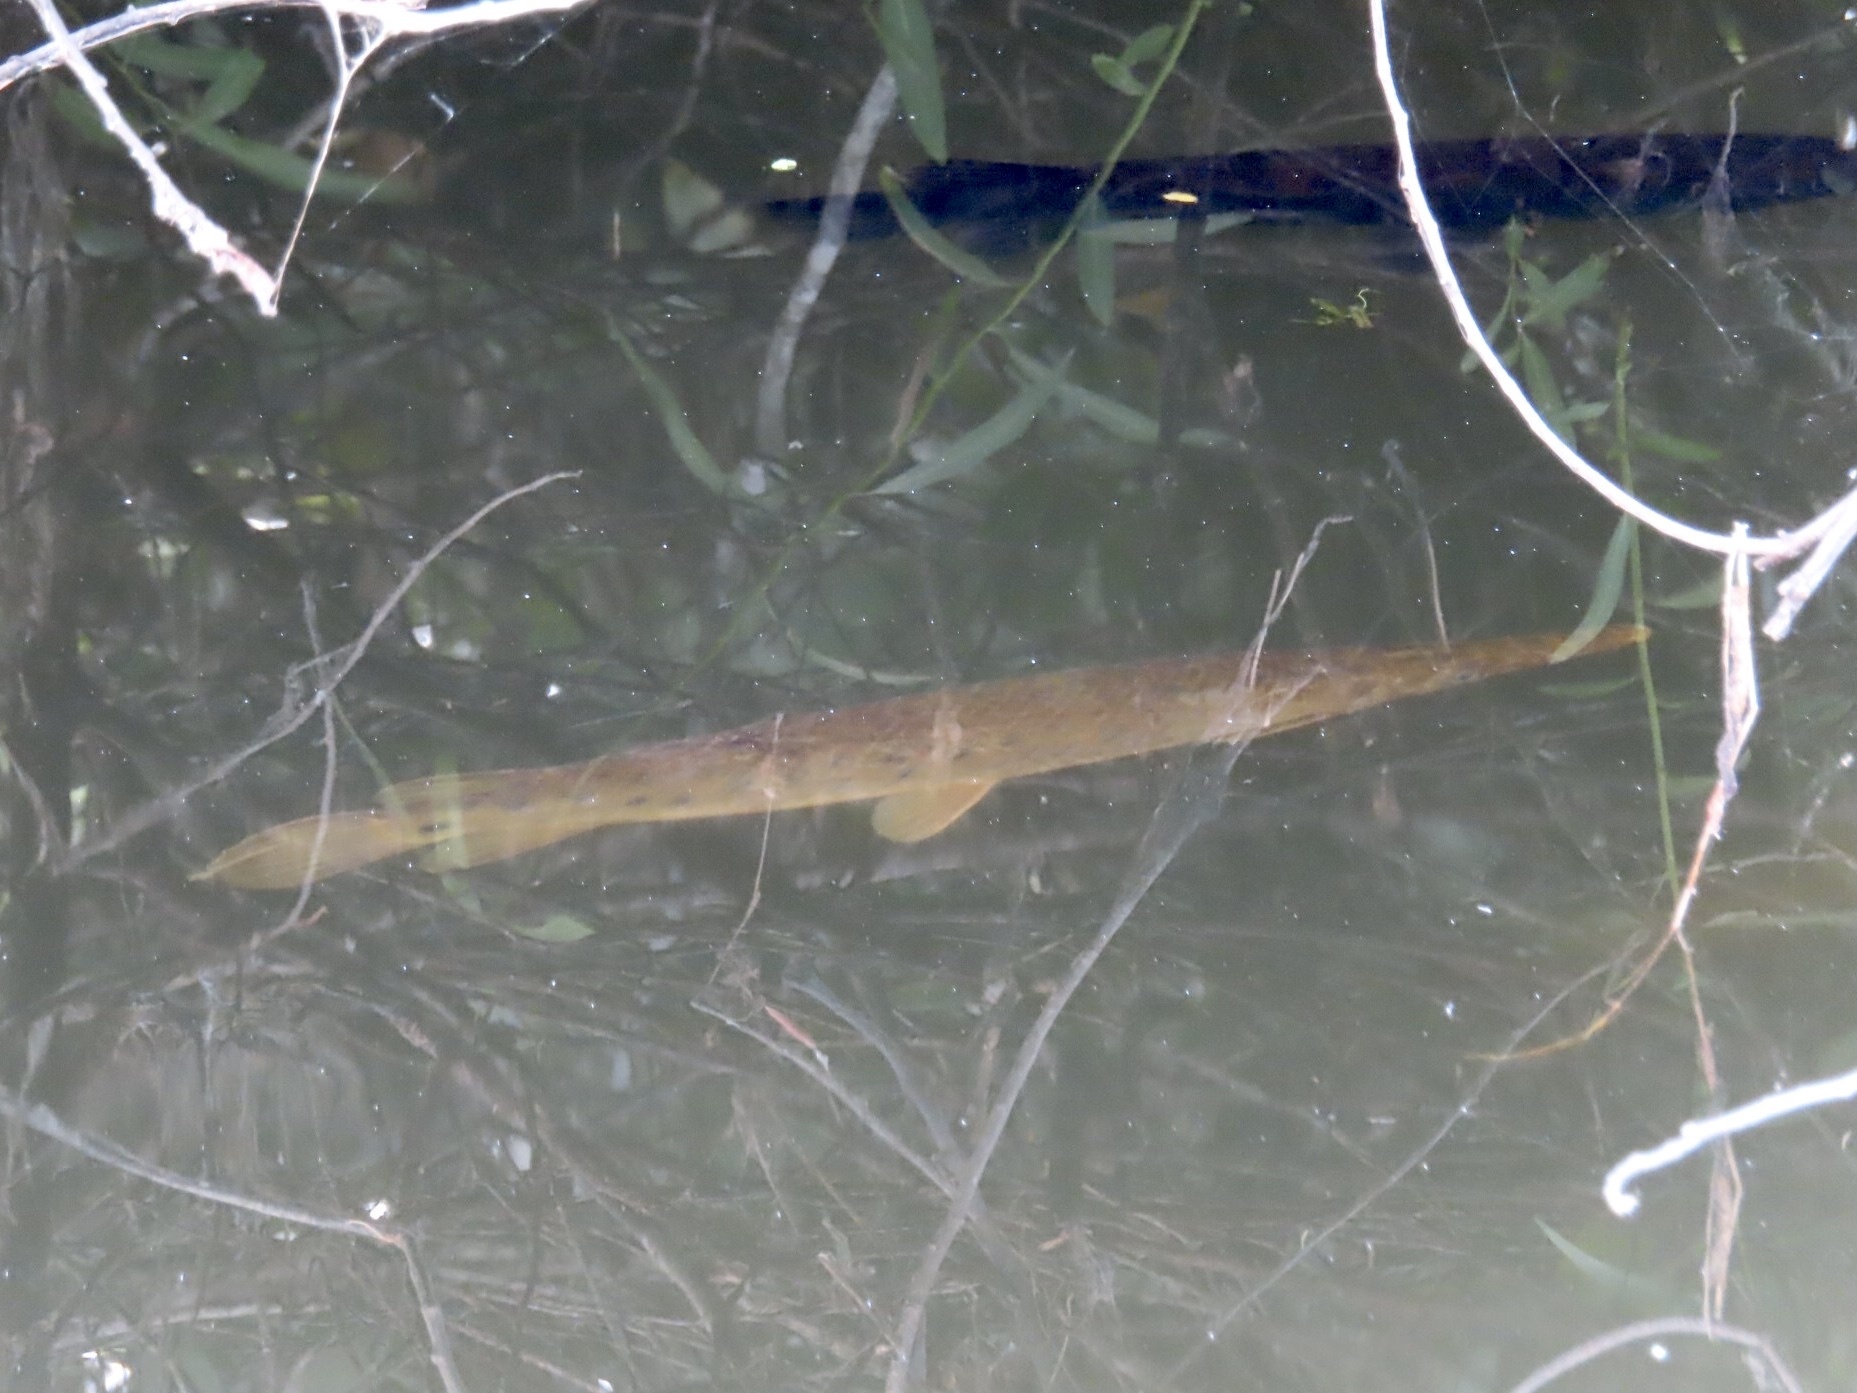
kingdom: Animalia
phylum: Chordata
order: Lepisosteiformes
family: Lepisosteidae
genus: Lepisosteus
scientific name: Lepisosteus platyrhincus
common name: Florida gar
